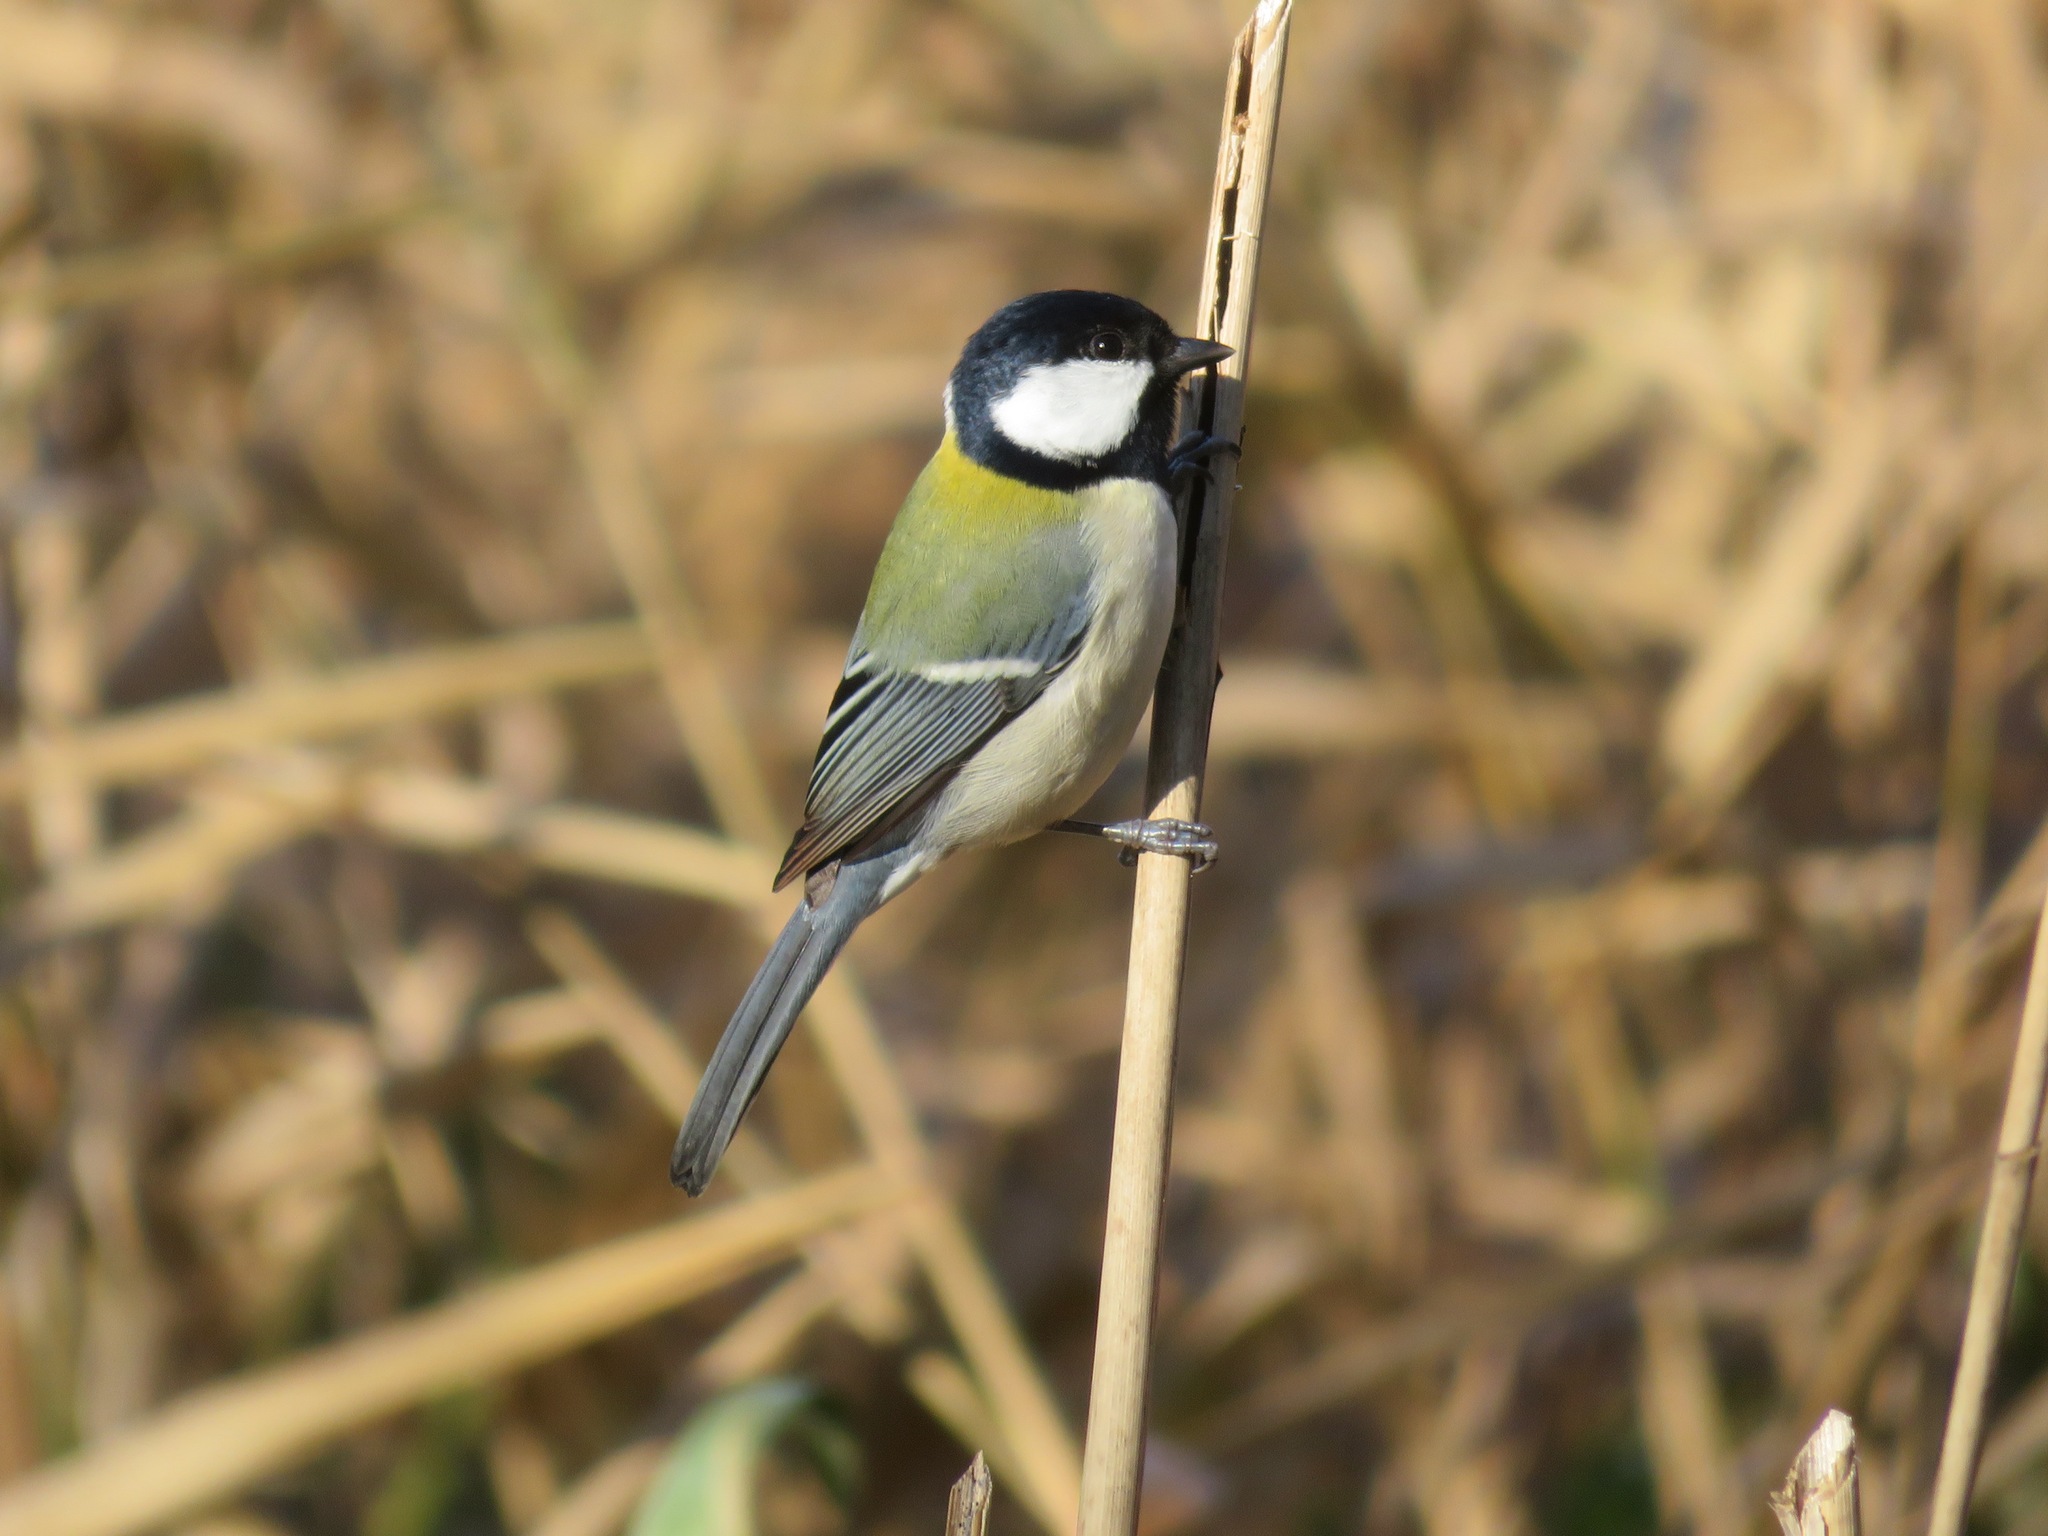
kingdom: Animalia
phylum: Chordata
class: Aves
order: Passeriformes
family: Paridae
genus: Parus
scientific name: Parus minor
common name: Japanese tit
